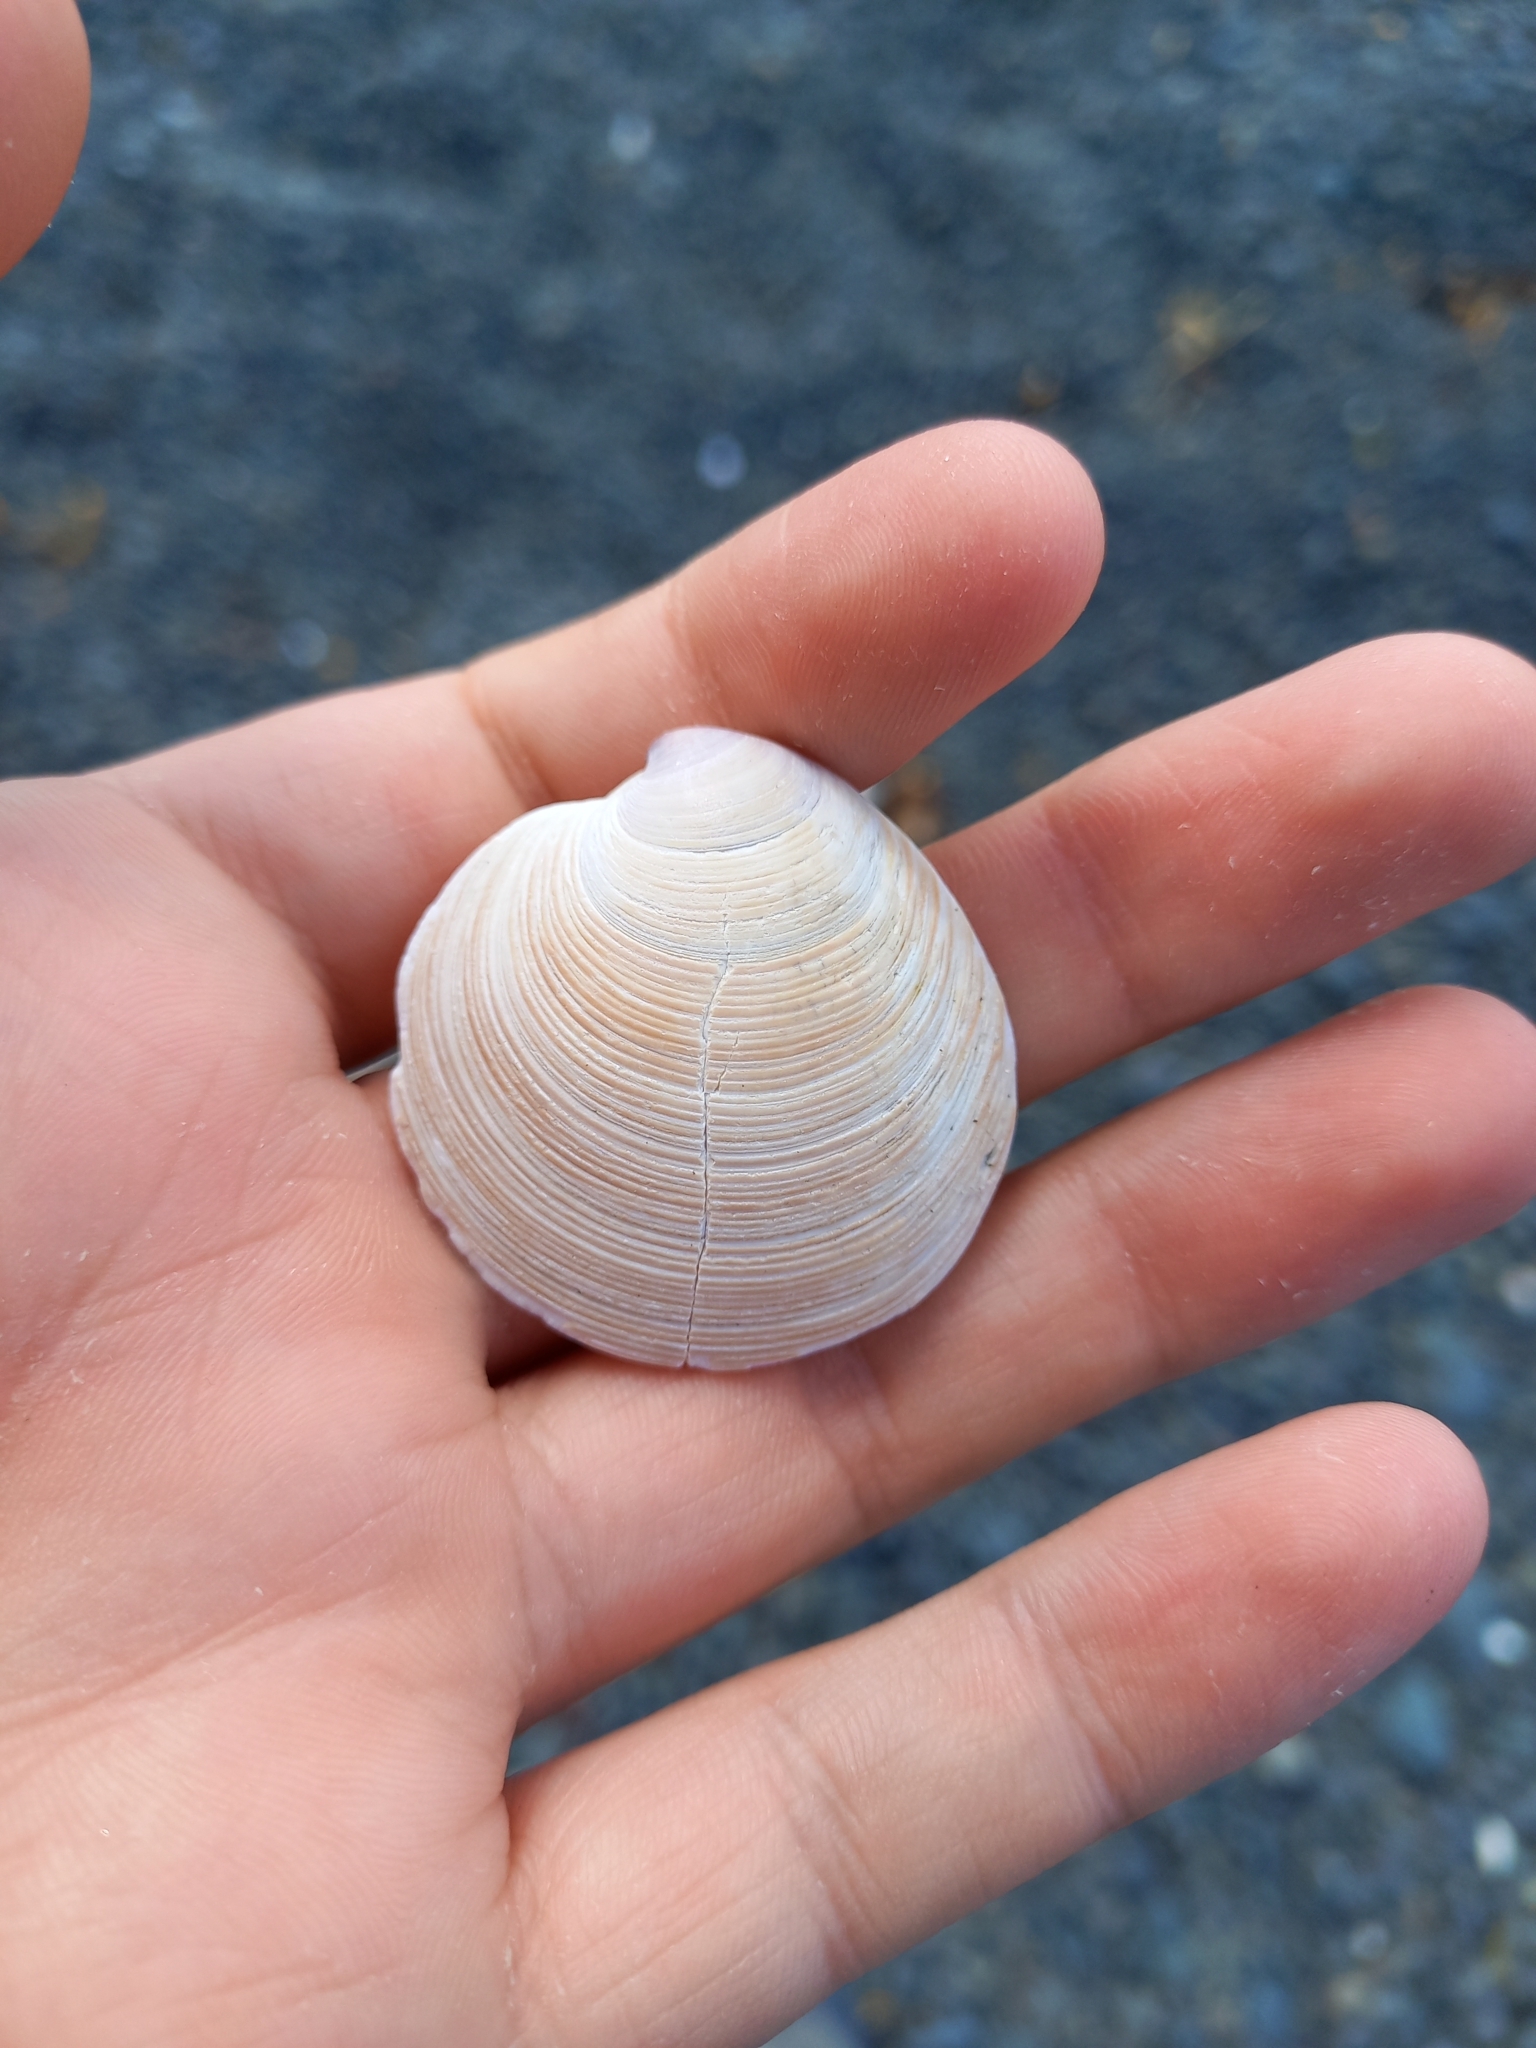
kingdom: Animalia
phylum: Mollusca
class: Bivalvia
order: Venerida
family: Veneridae
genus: Dosinia
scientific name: Dosinia anus
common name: Old-woman dosinia
